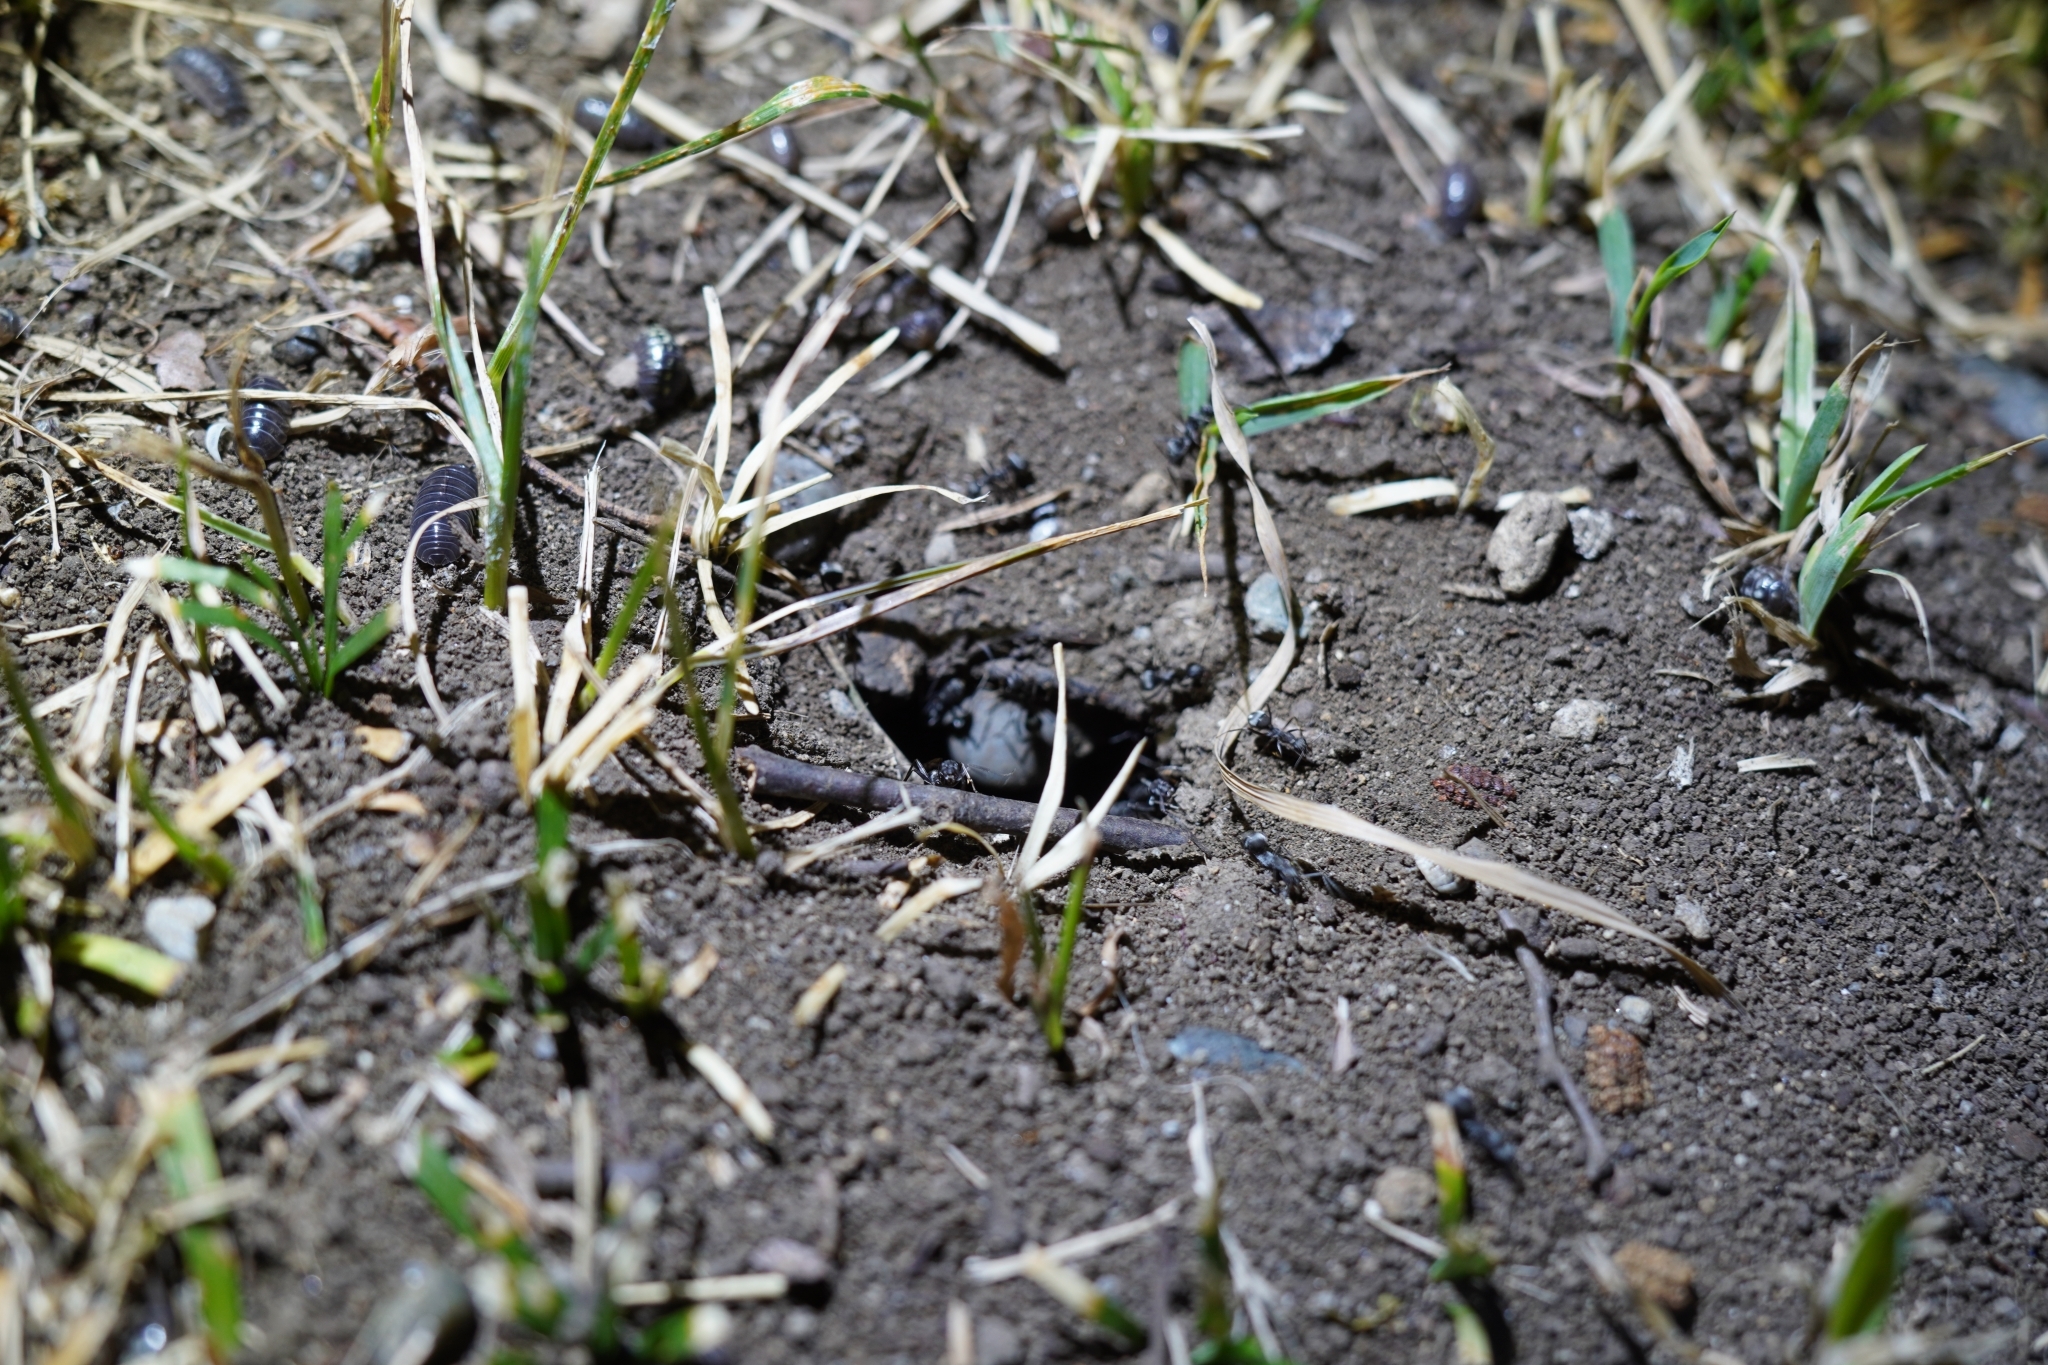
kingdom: Animalia
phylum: Arthropoda
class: Insecta
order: Hymenoptera
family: Formicidae
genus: Formica
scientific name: Formica japonica
